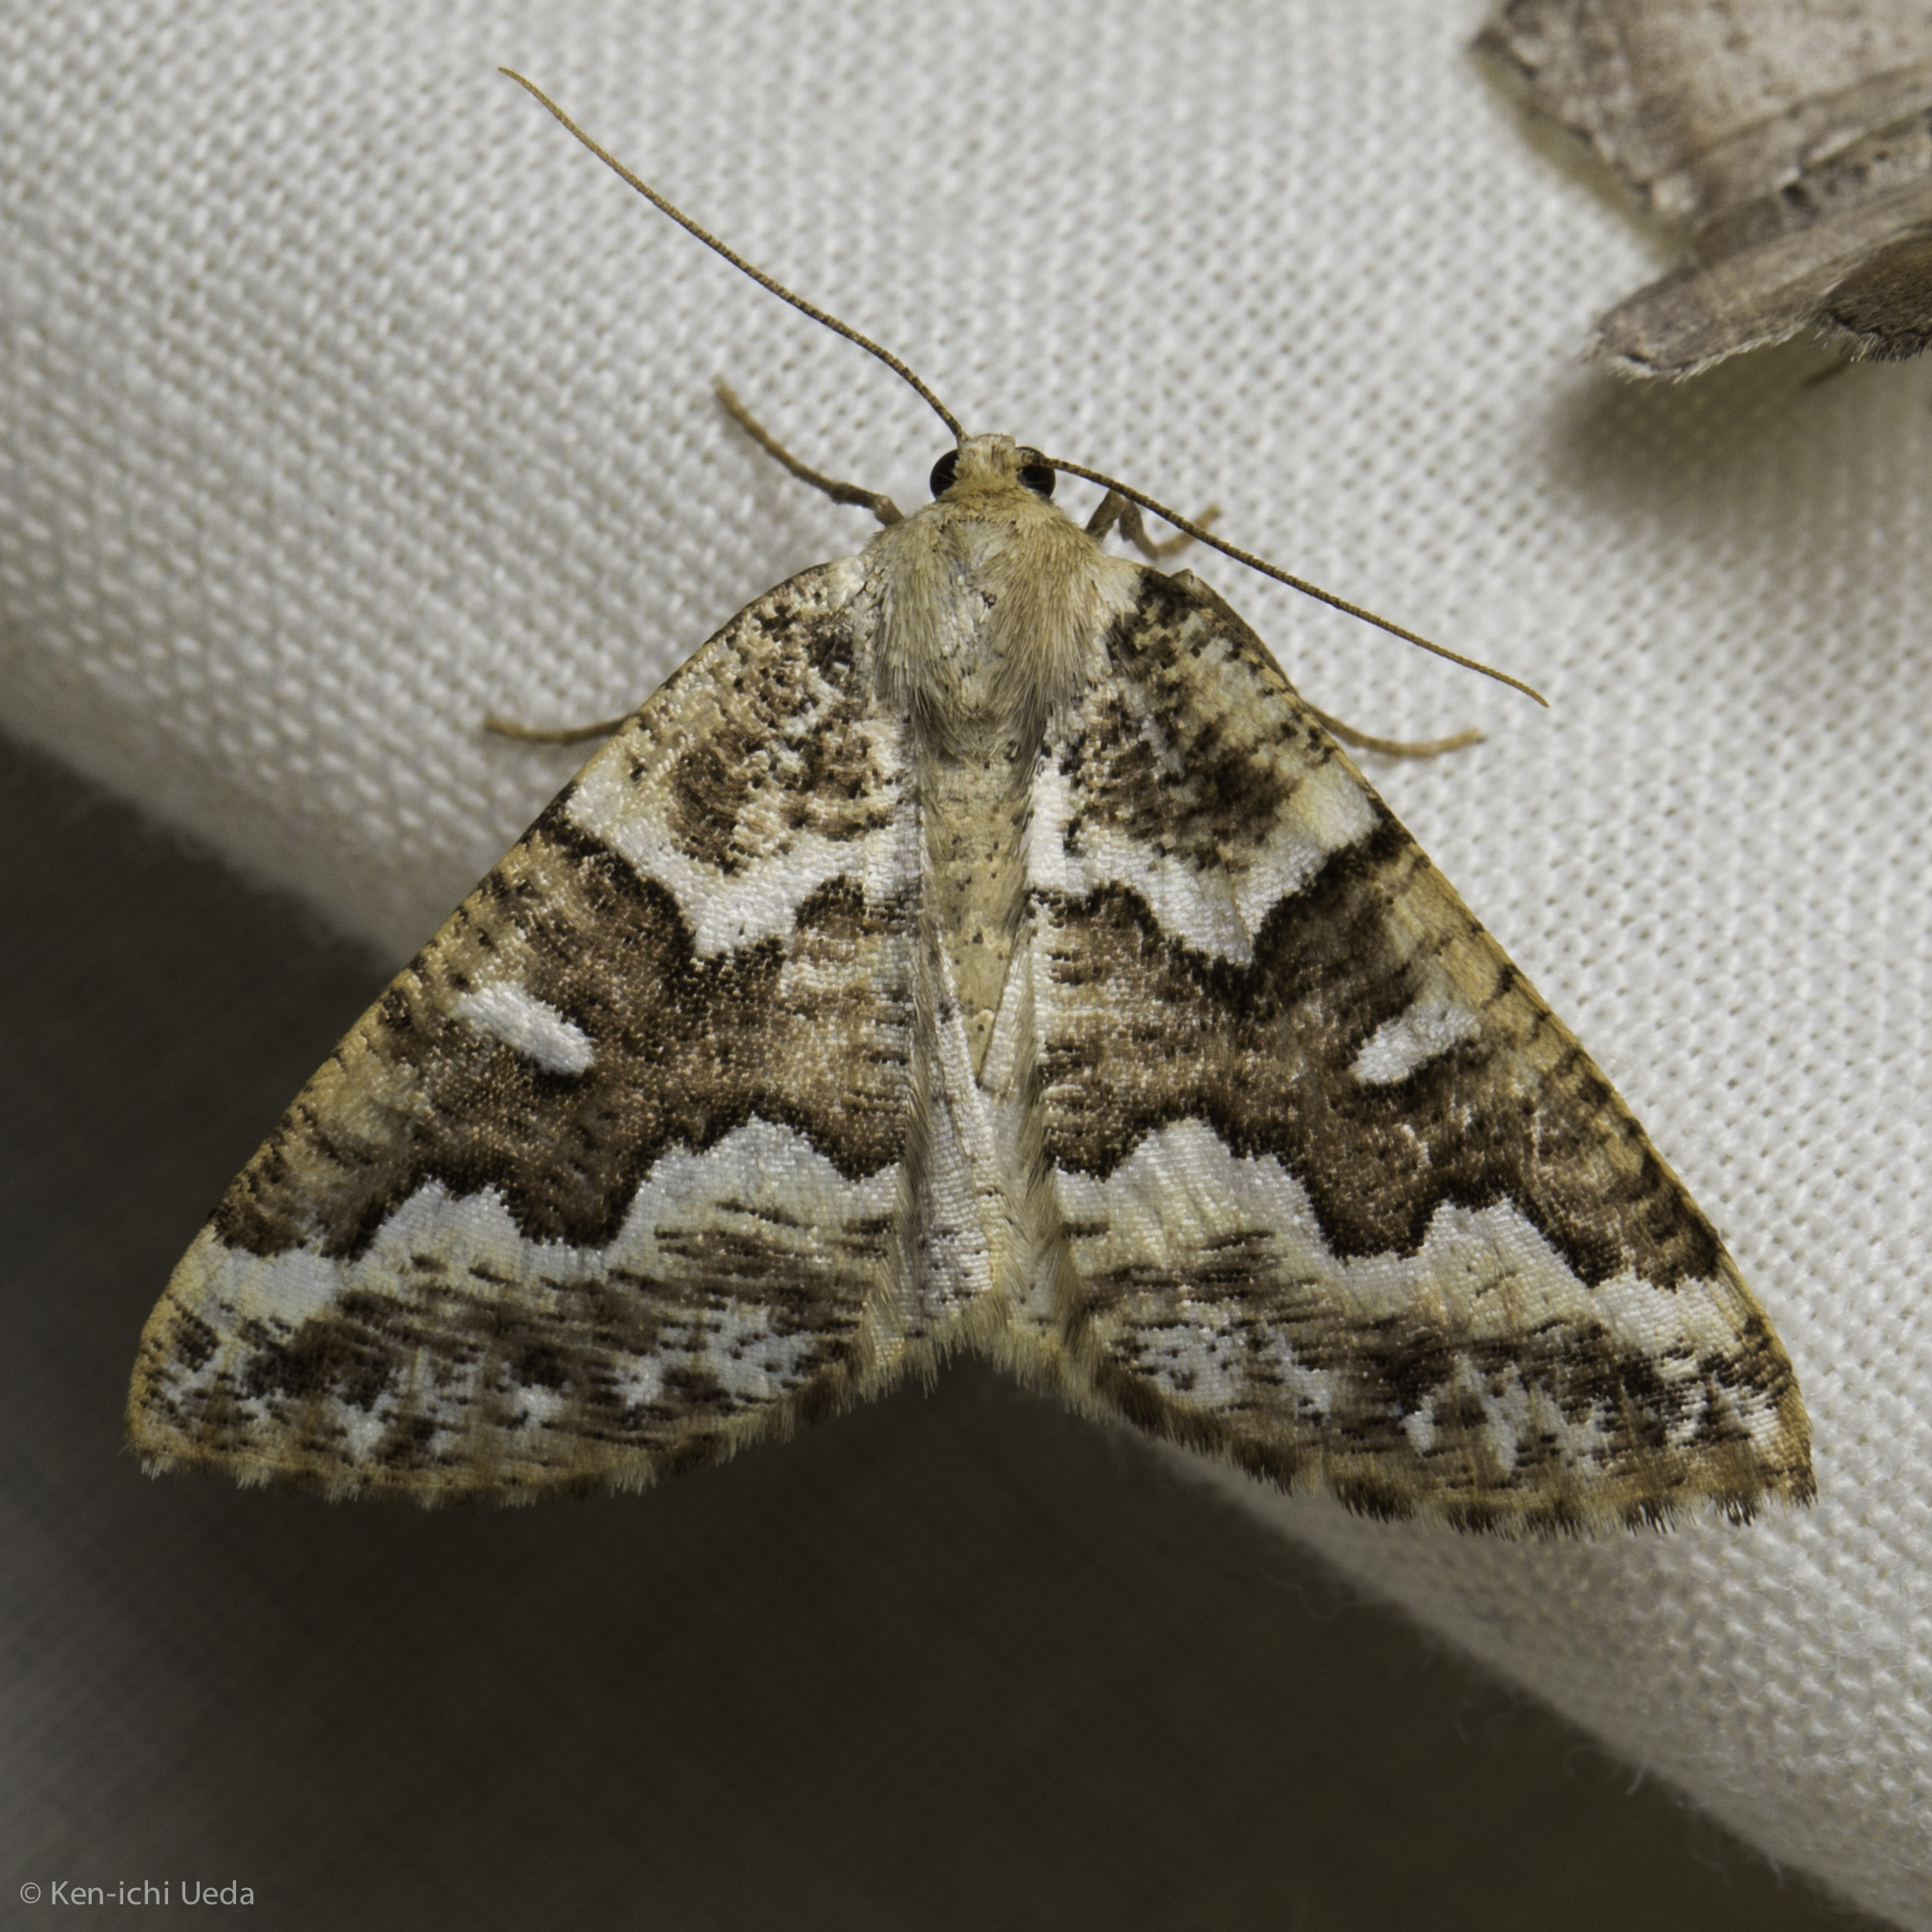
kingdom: Animalia
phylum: Arthropoda
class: Insecta
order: Lepidoptera
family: Geometridae
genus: Caripeta
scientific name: Caripeta divisata
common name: Gray spruce looper
